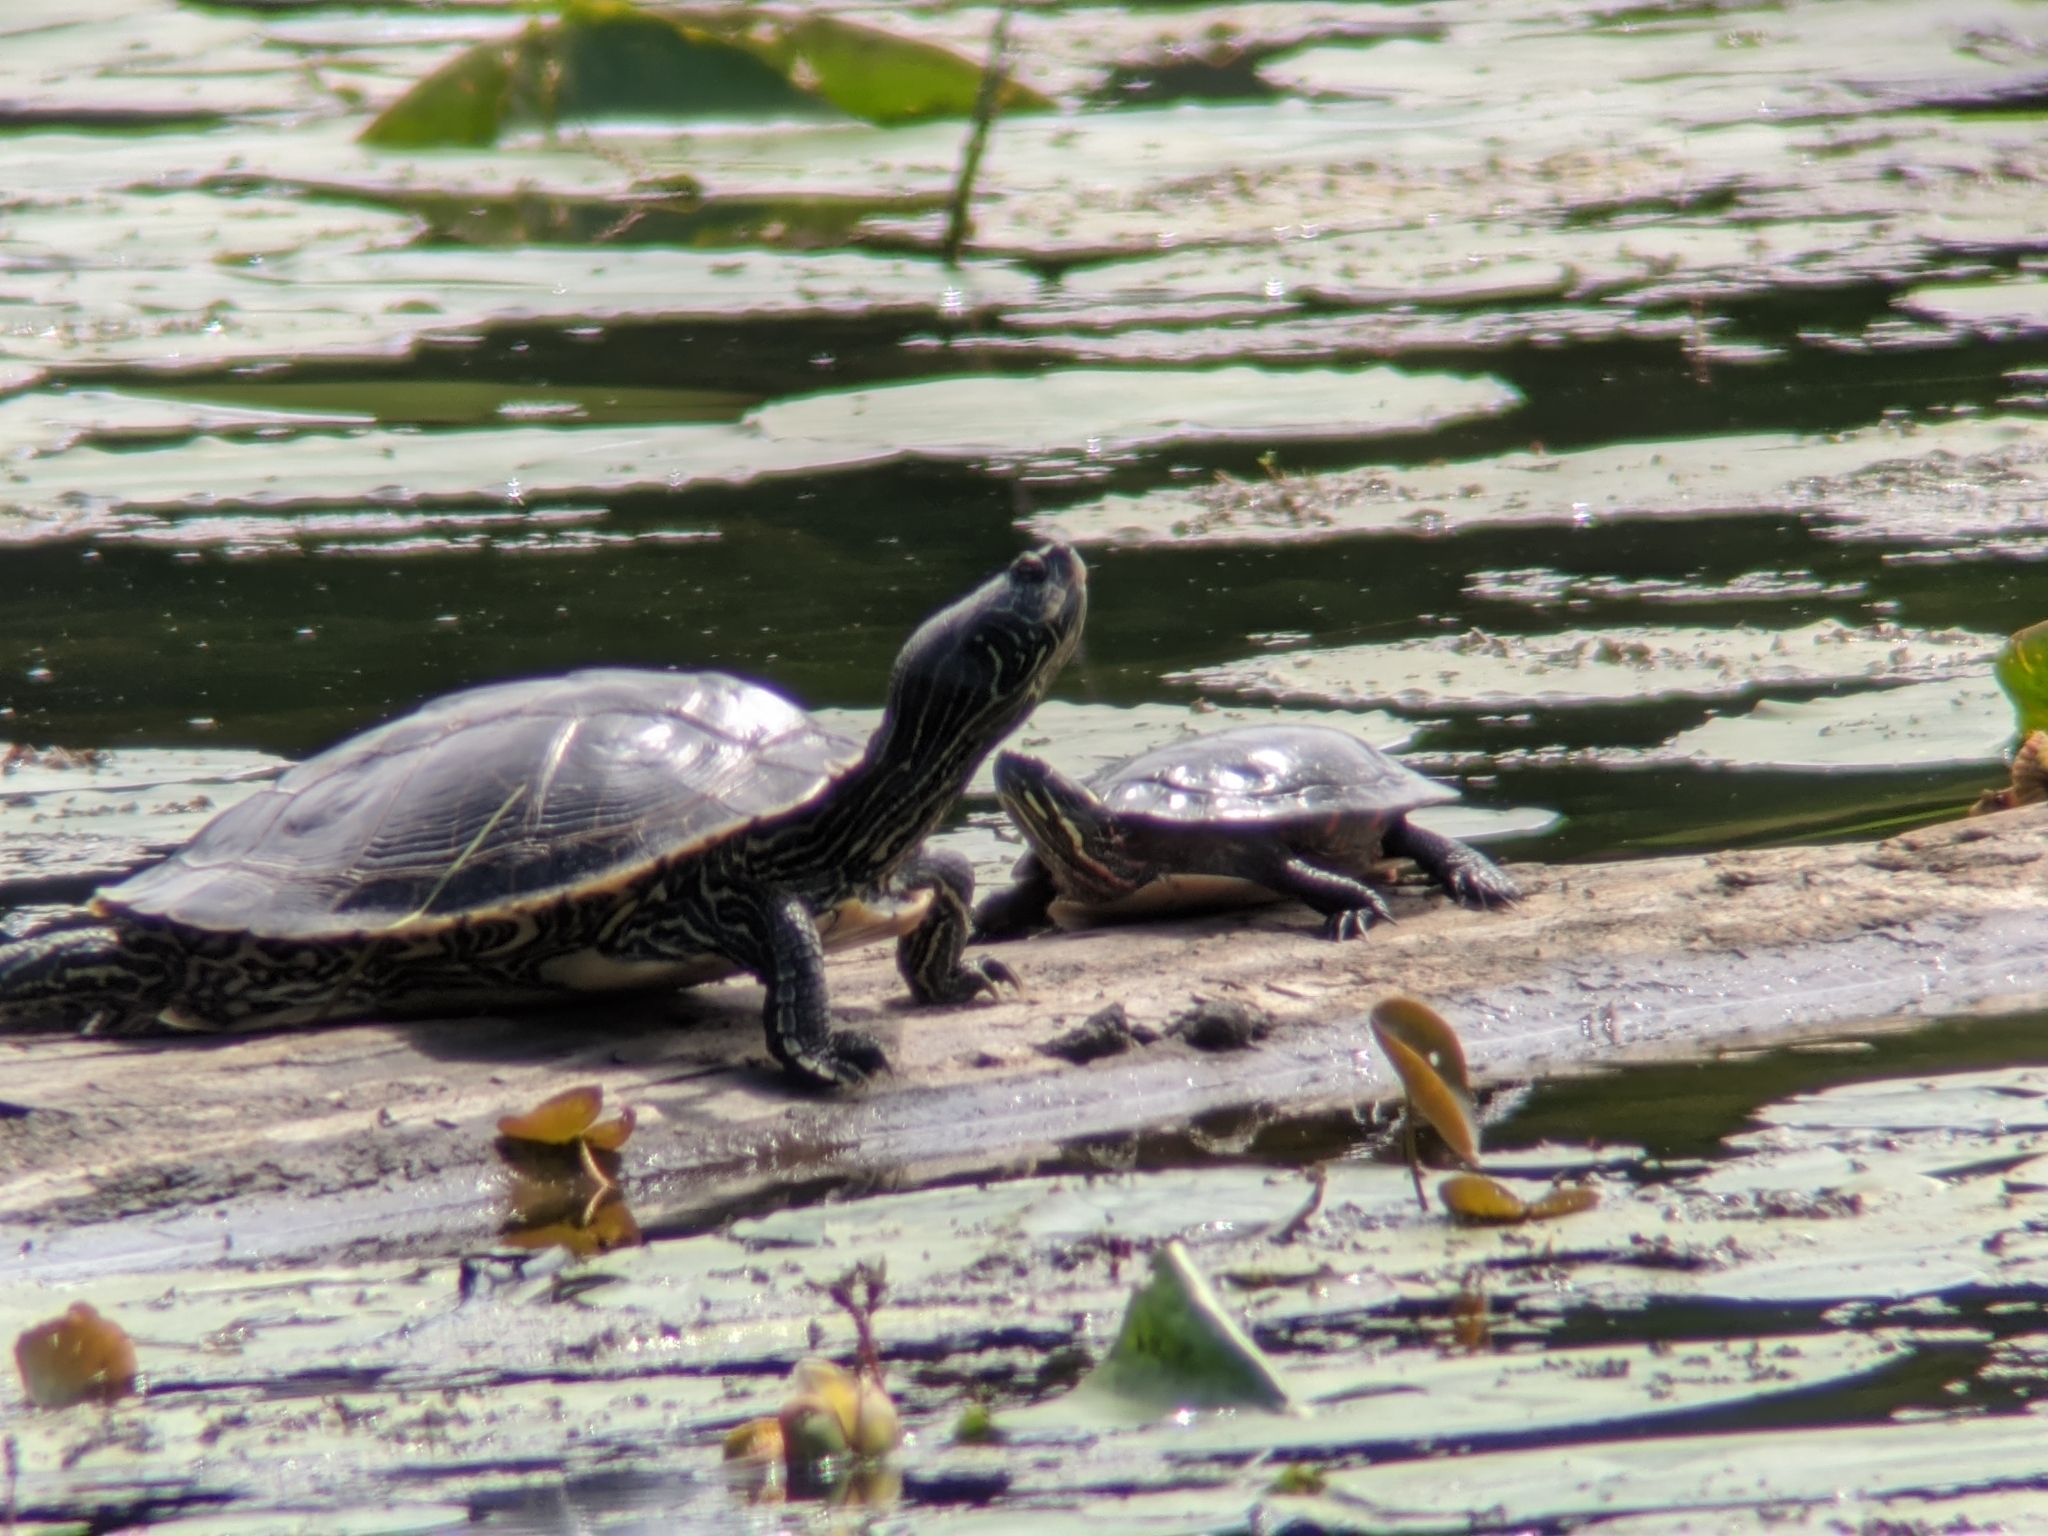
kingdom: Animalia
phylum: Chordata
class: Testudines
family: Emydidae
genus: Graptemys
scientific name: Graptemys geographica
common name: Common map turtle
